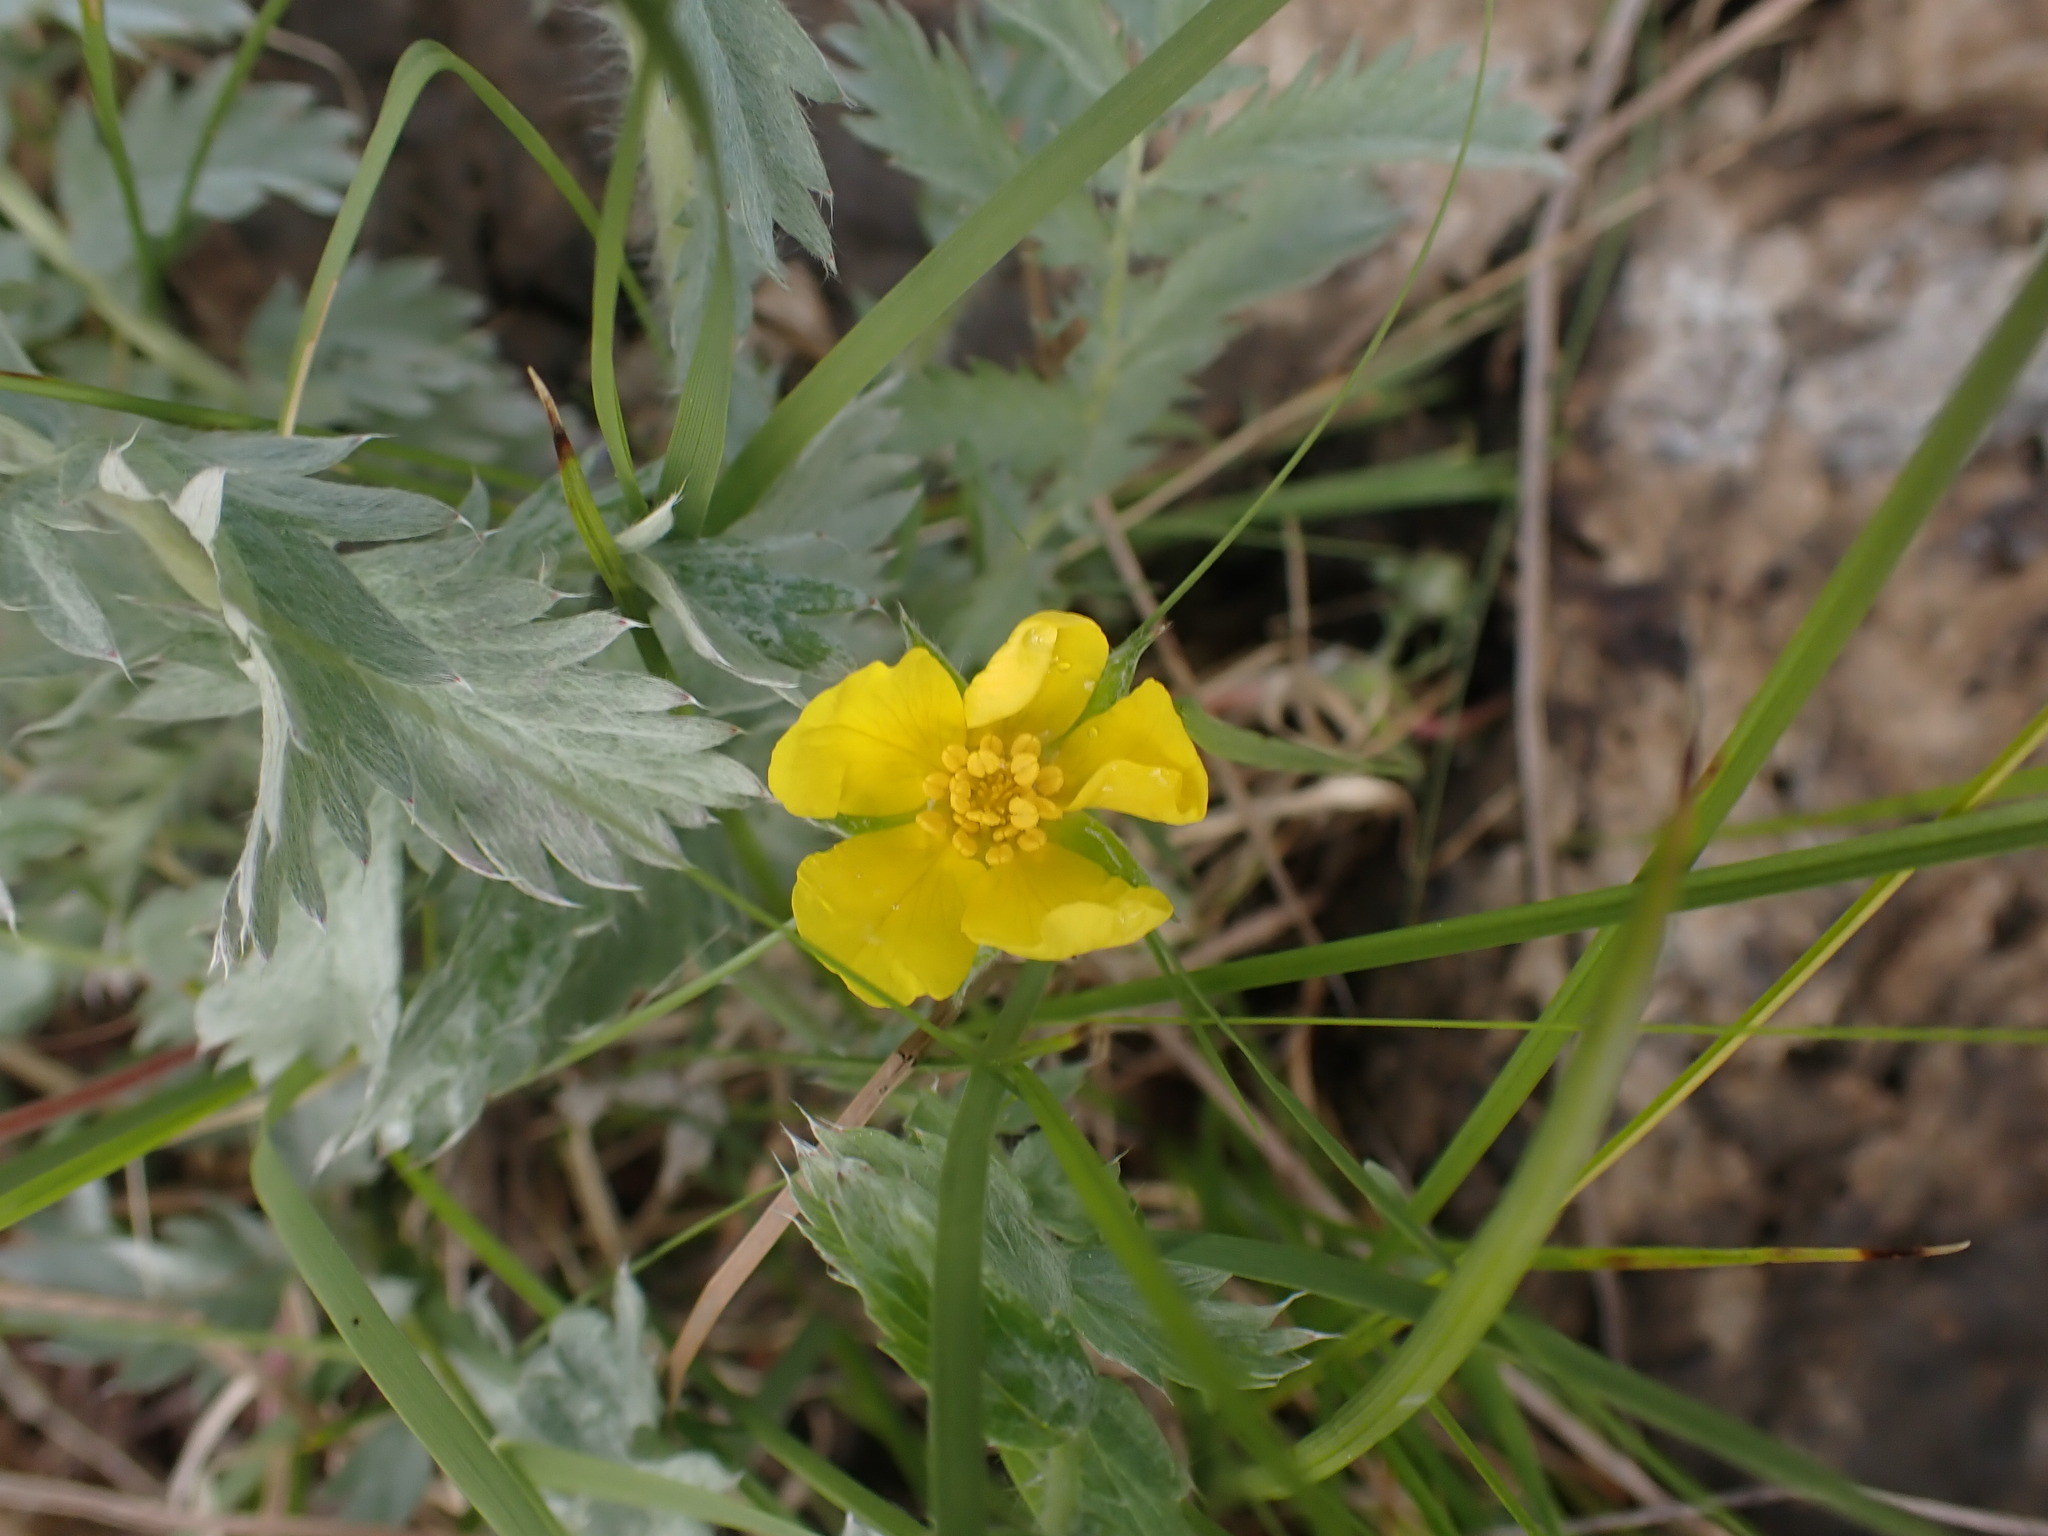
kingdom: Plantae
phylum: Tracheophyta
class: Magnoliopsida
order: Rosales
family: Rosaceae
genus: Argentina
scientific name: Argentina anserina
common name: Common silverweed
